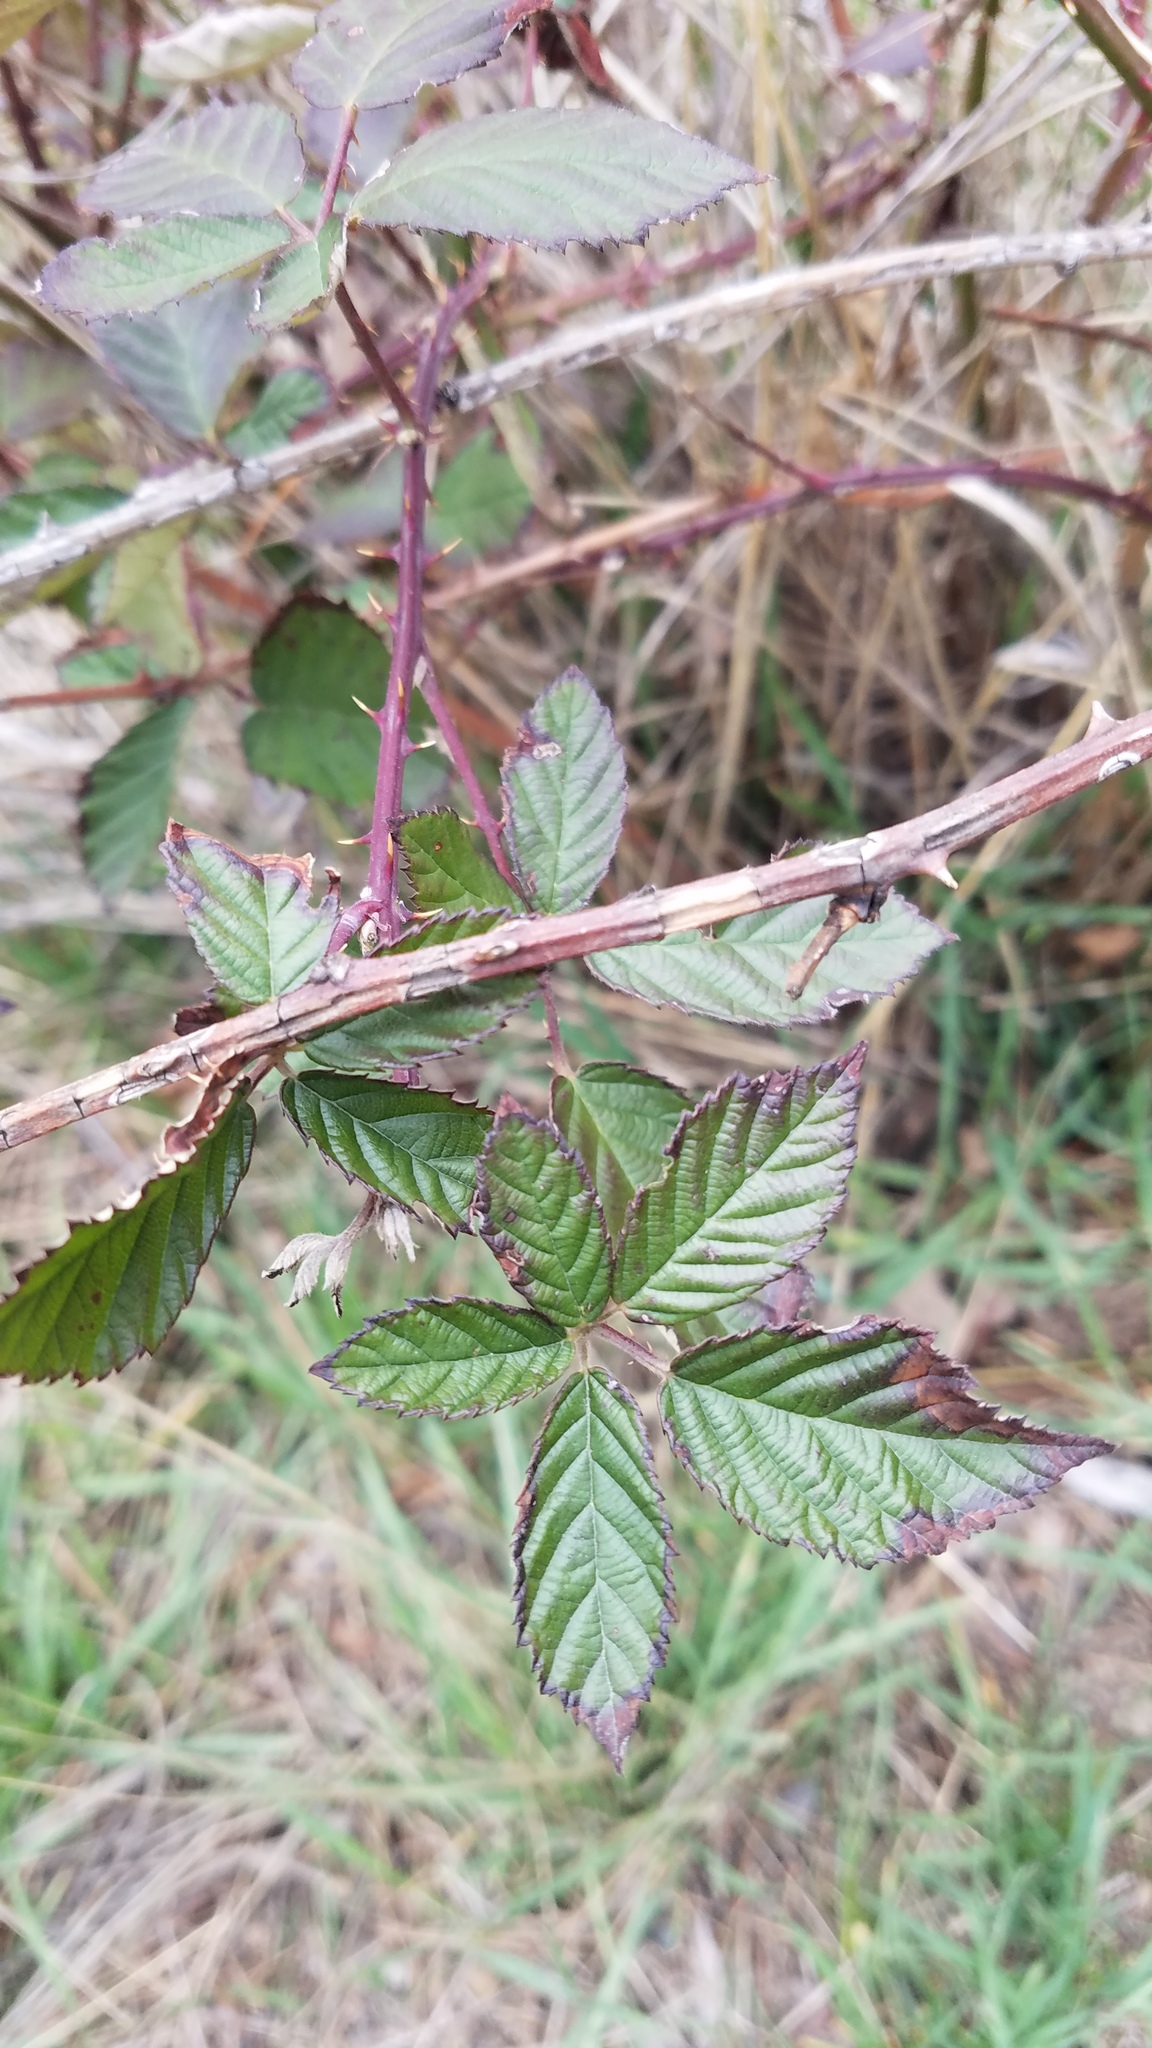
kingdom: Plantae
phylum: Tracheophyta
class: Magnoliopsida
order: Rosales
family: Rosaceae
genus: Rubus
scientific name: Rubus bifrons
